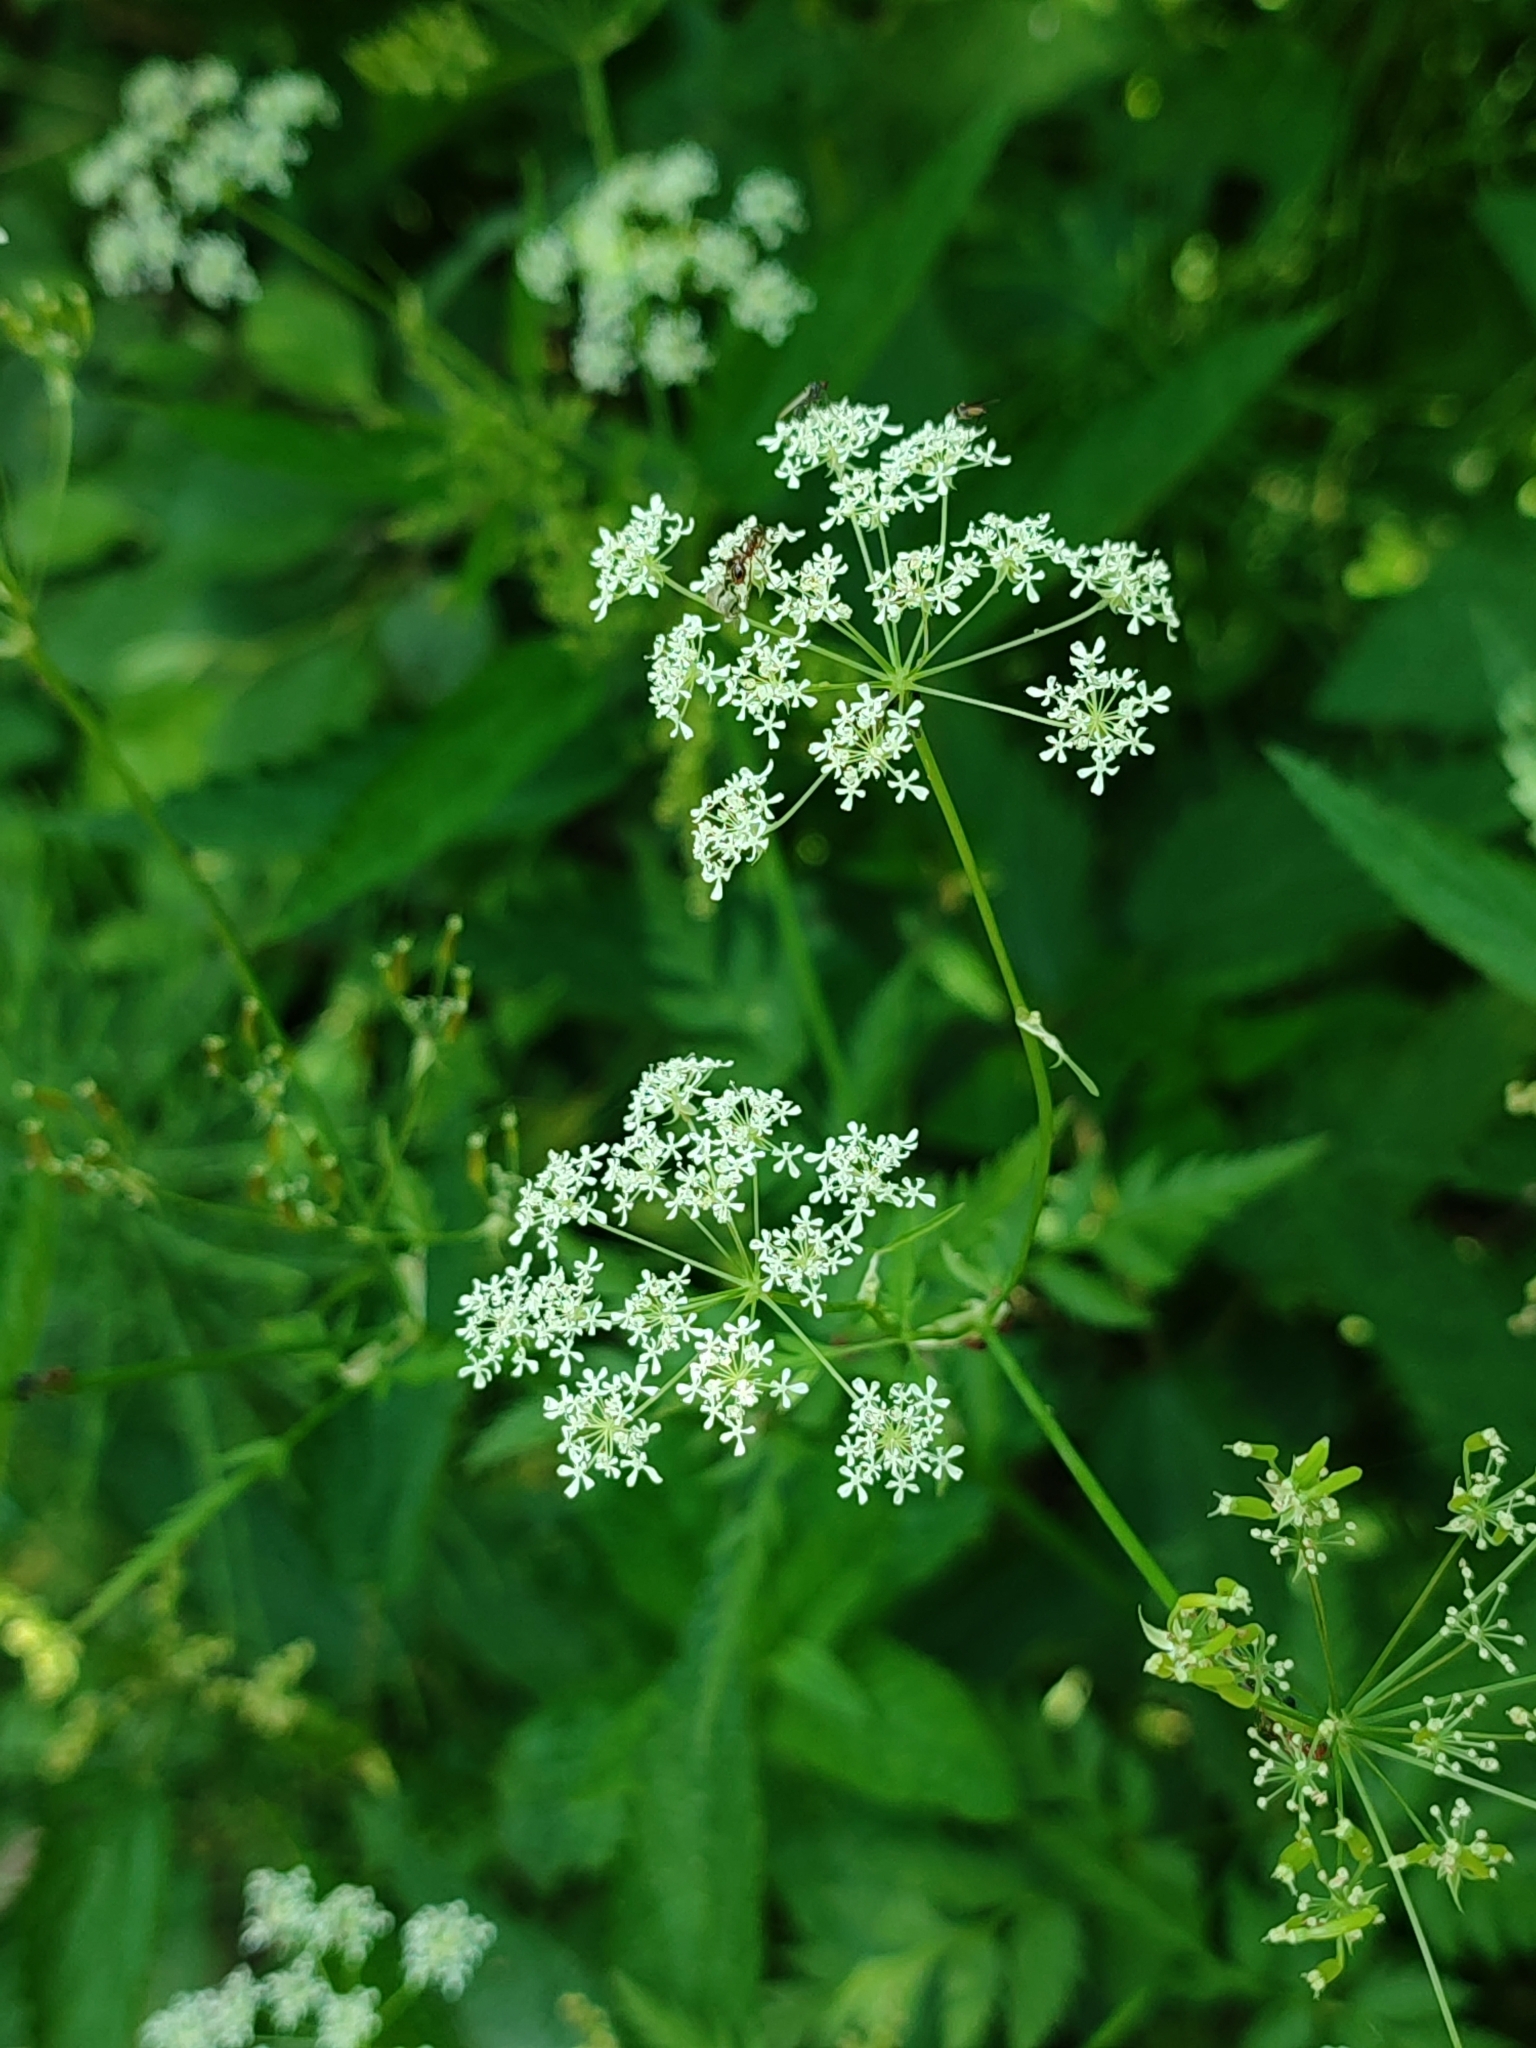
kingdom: Plantae
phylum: Tracheophyta
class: Magnoliopsida
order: Apiales
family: Apiaceae
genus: Anthriscus
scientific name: Anthriscus sylvestris
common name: Cow parsley
